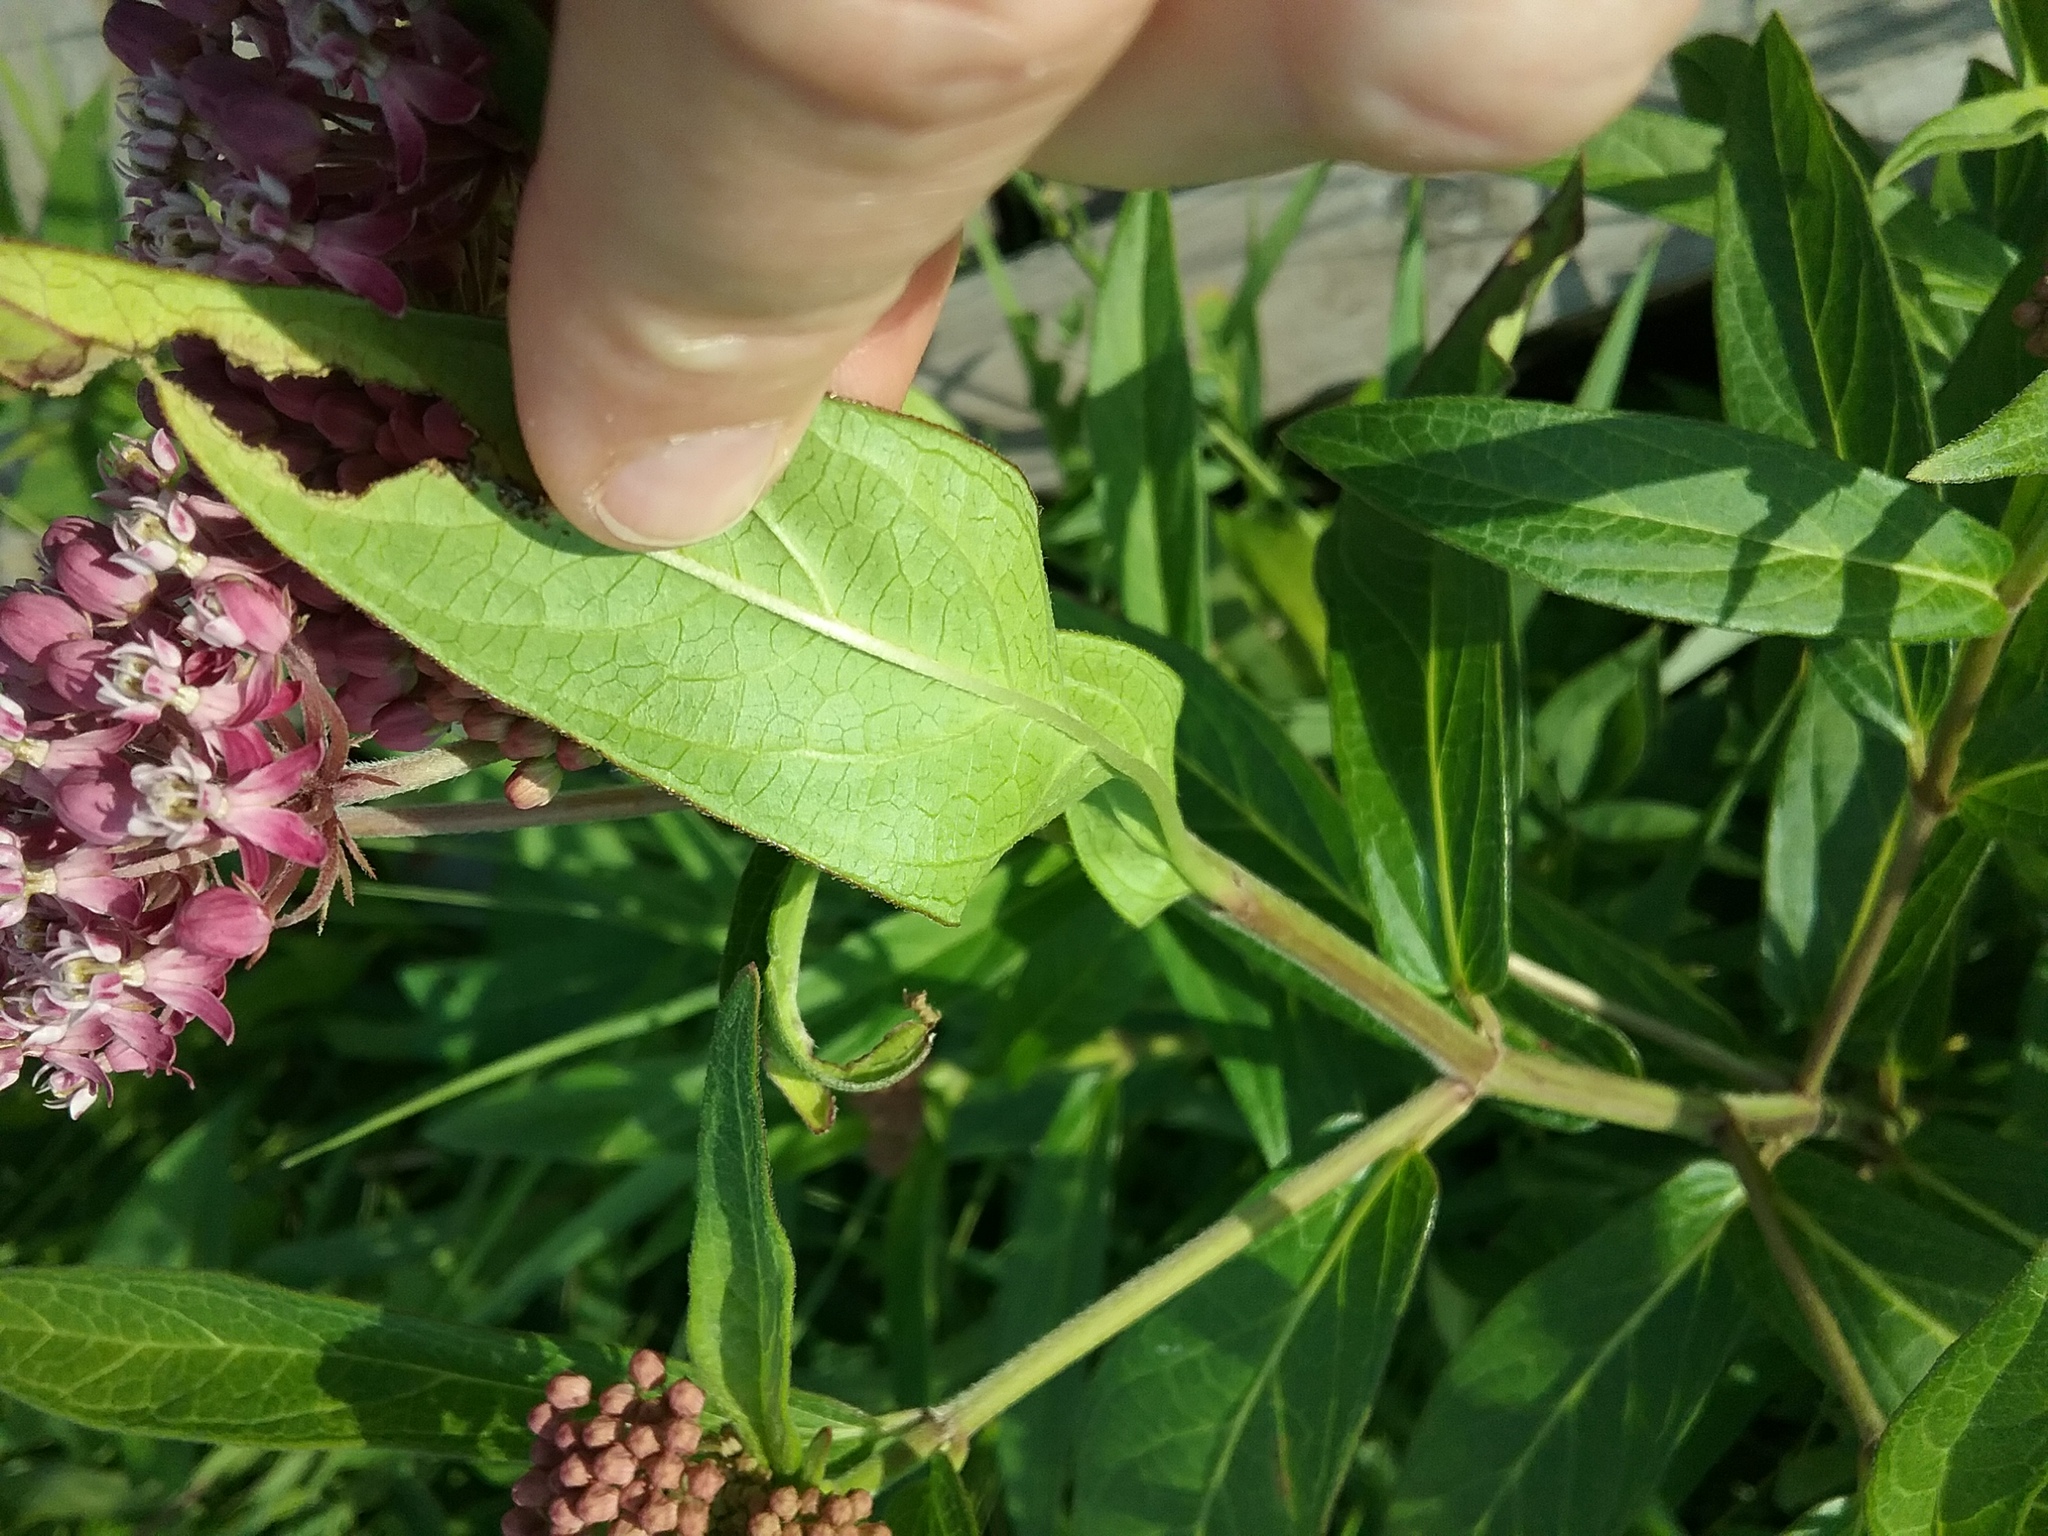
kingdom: Plantae
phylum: Tracheophyta
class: Magnoliopsida
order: Gentianales
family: Apocynaceae
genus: Asclepias
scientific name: Asclepias incarnata
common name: Swamp milkweed
